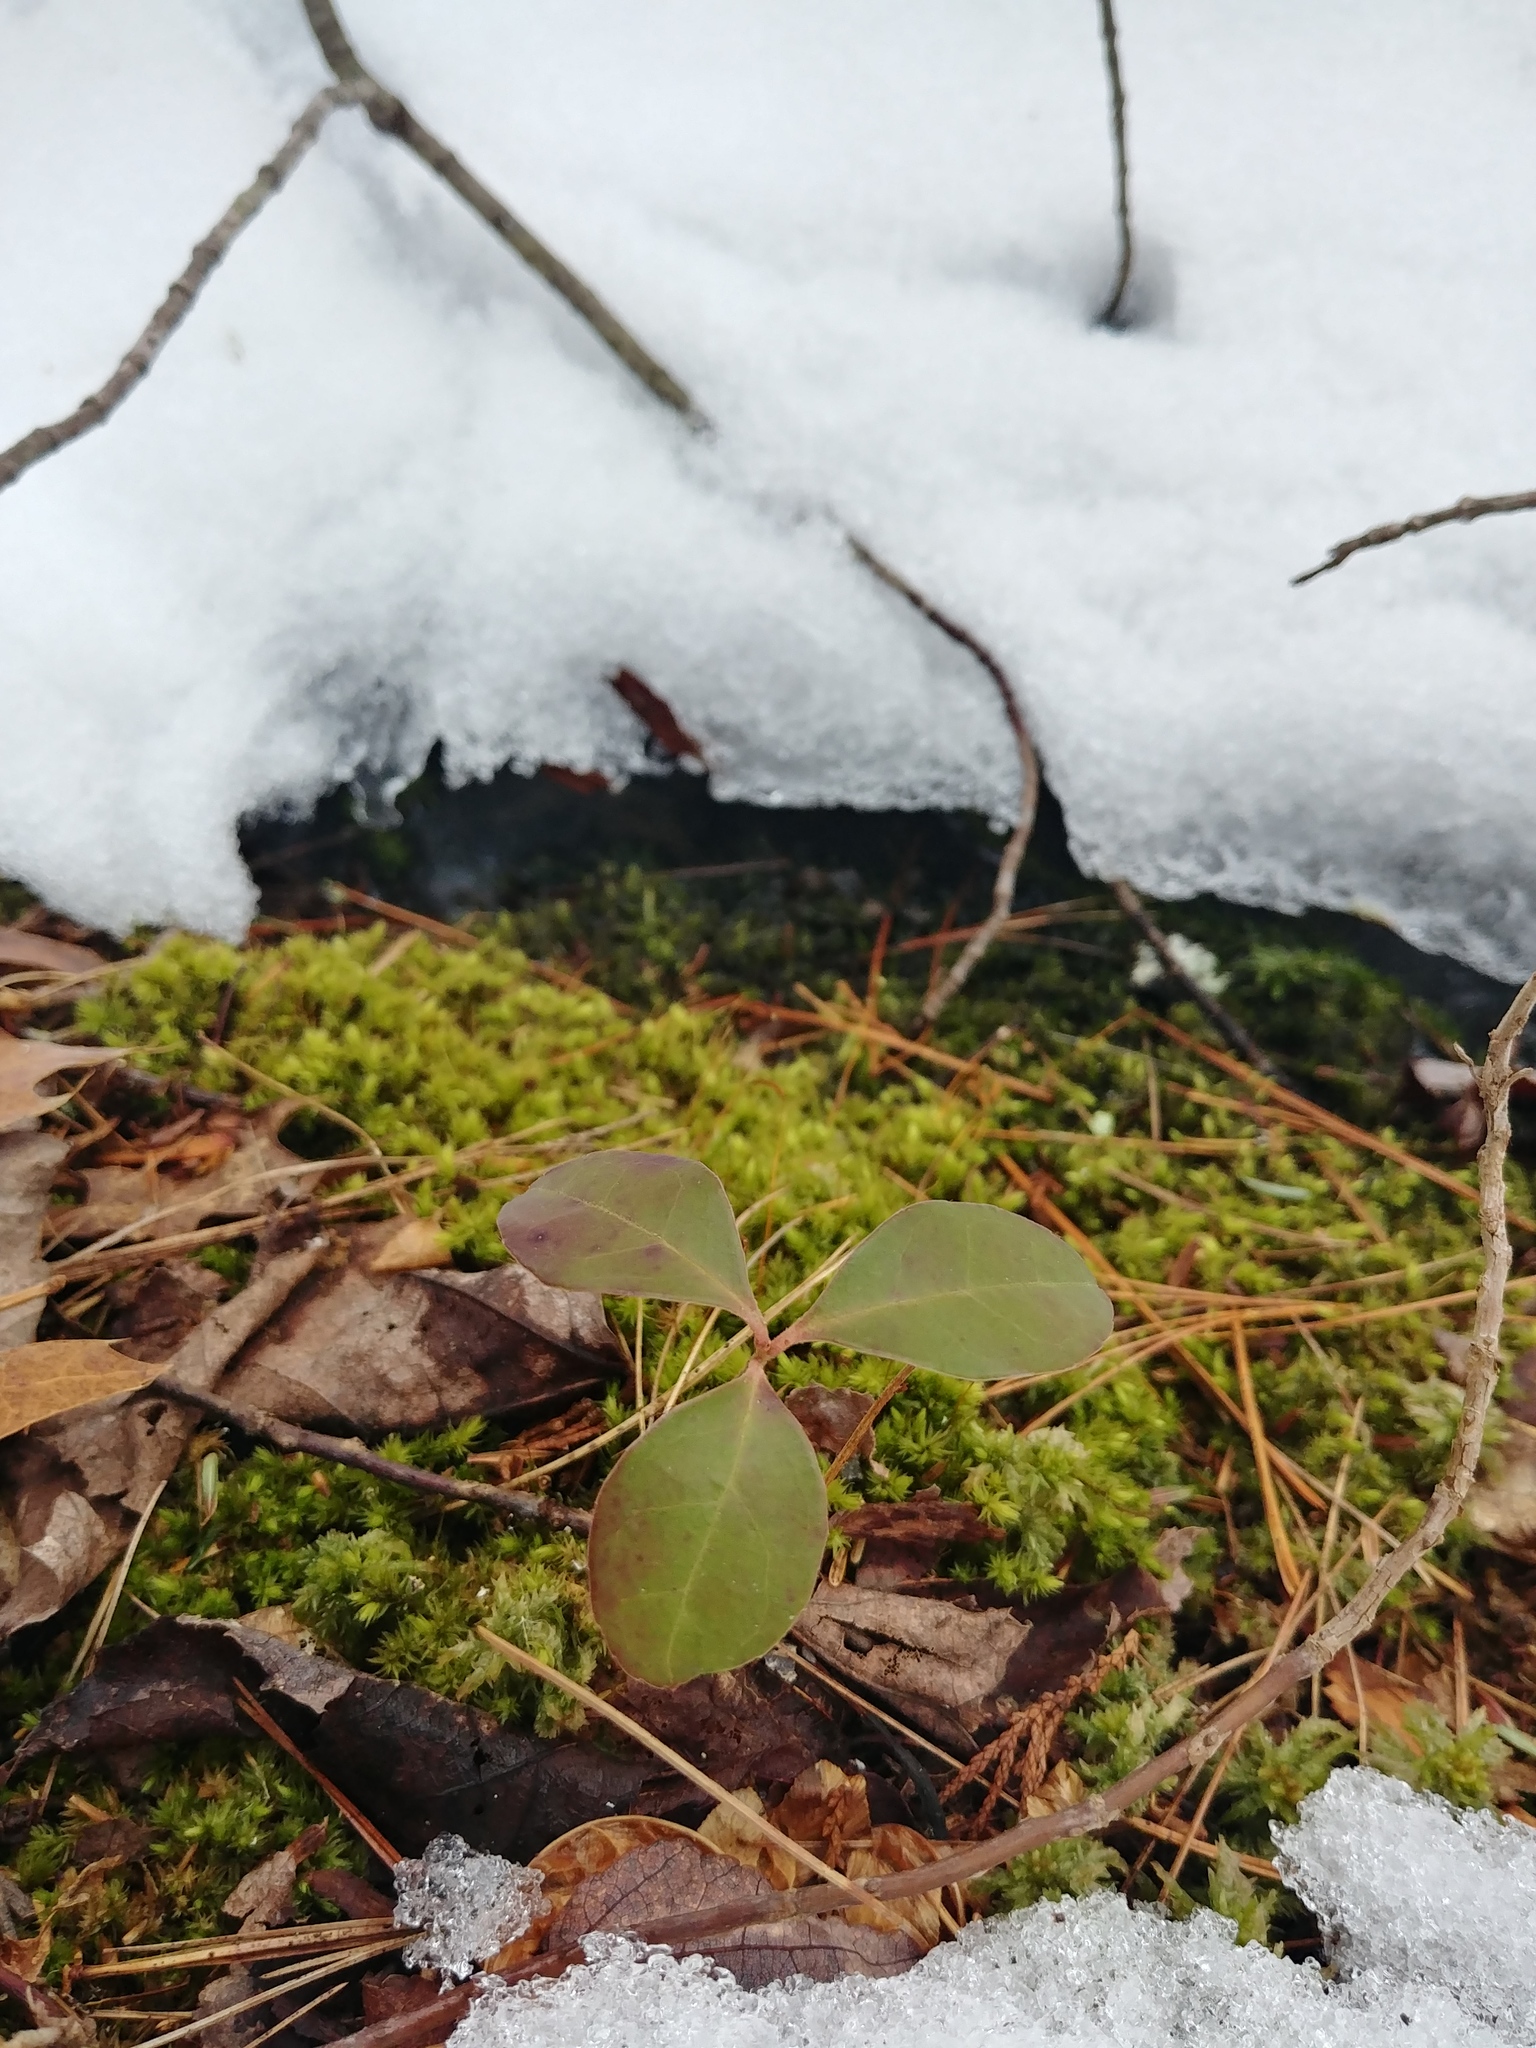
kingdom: Plantae
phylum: Tracheophyta
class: Magnoliopsida
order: Ericales
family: Ericaceae
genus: Gaultheria
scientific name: Gaultheria procumbens
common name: Checkerberry
